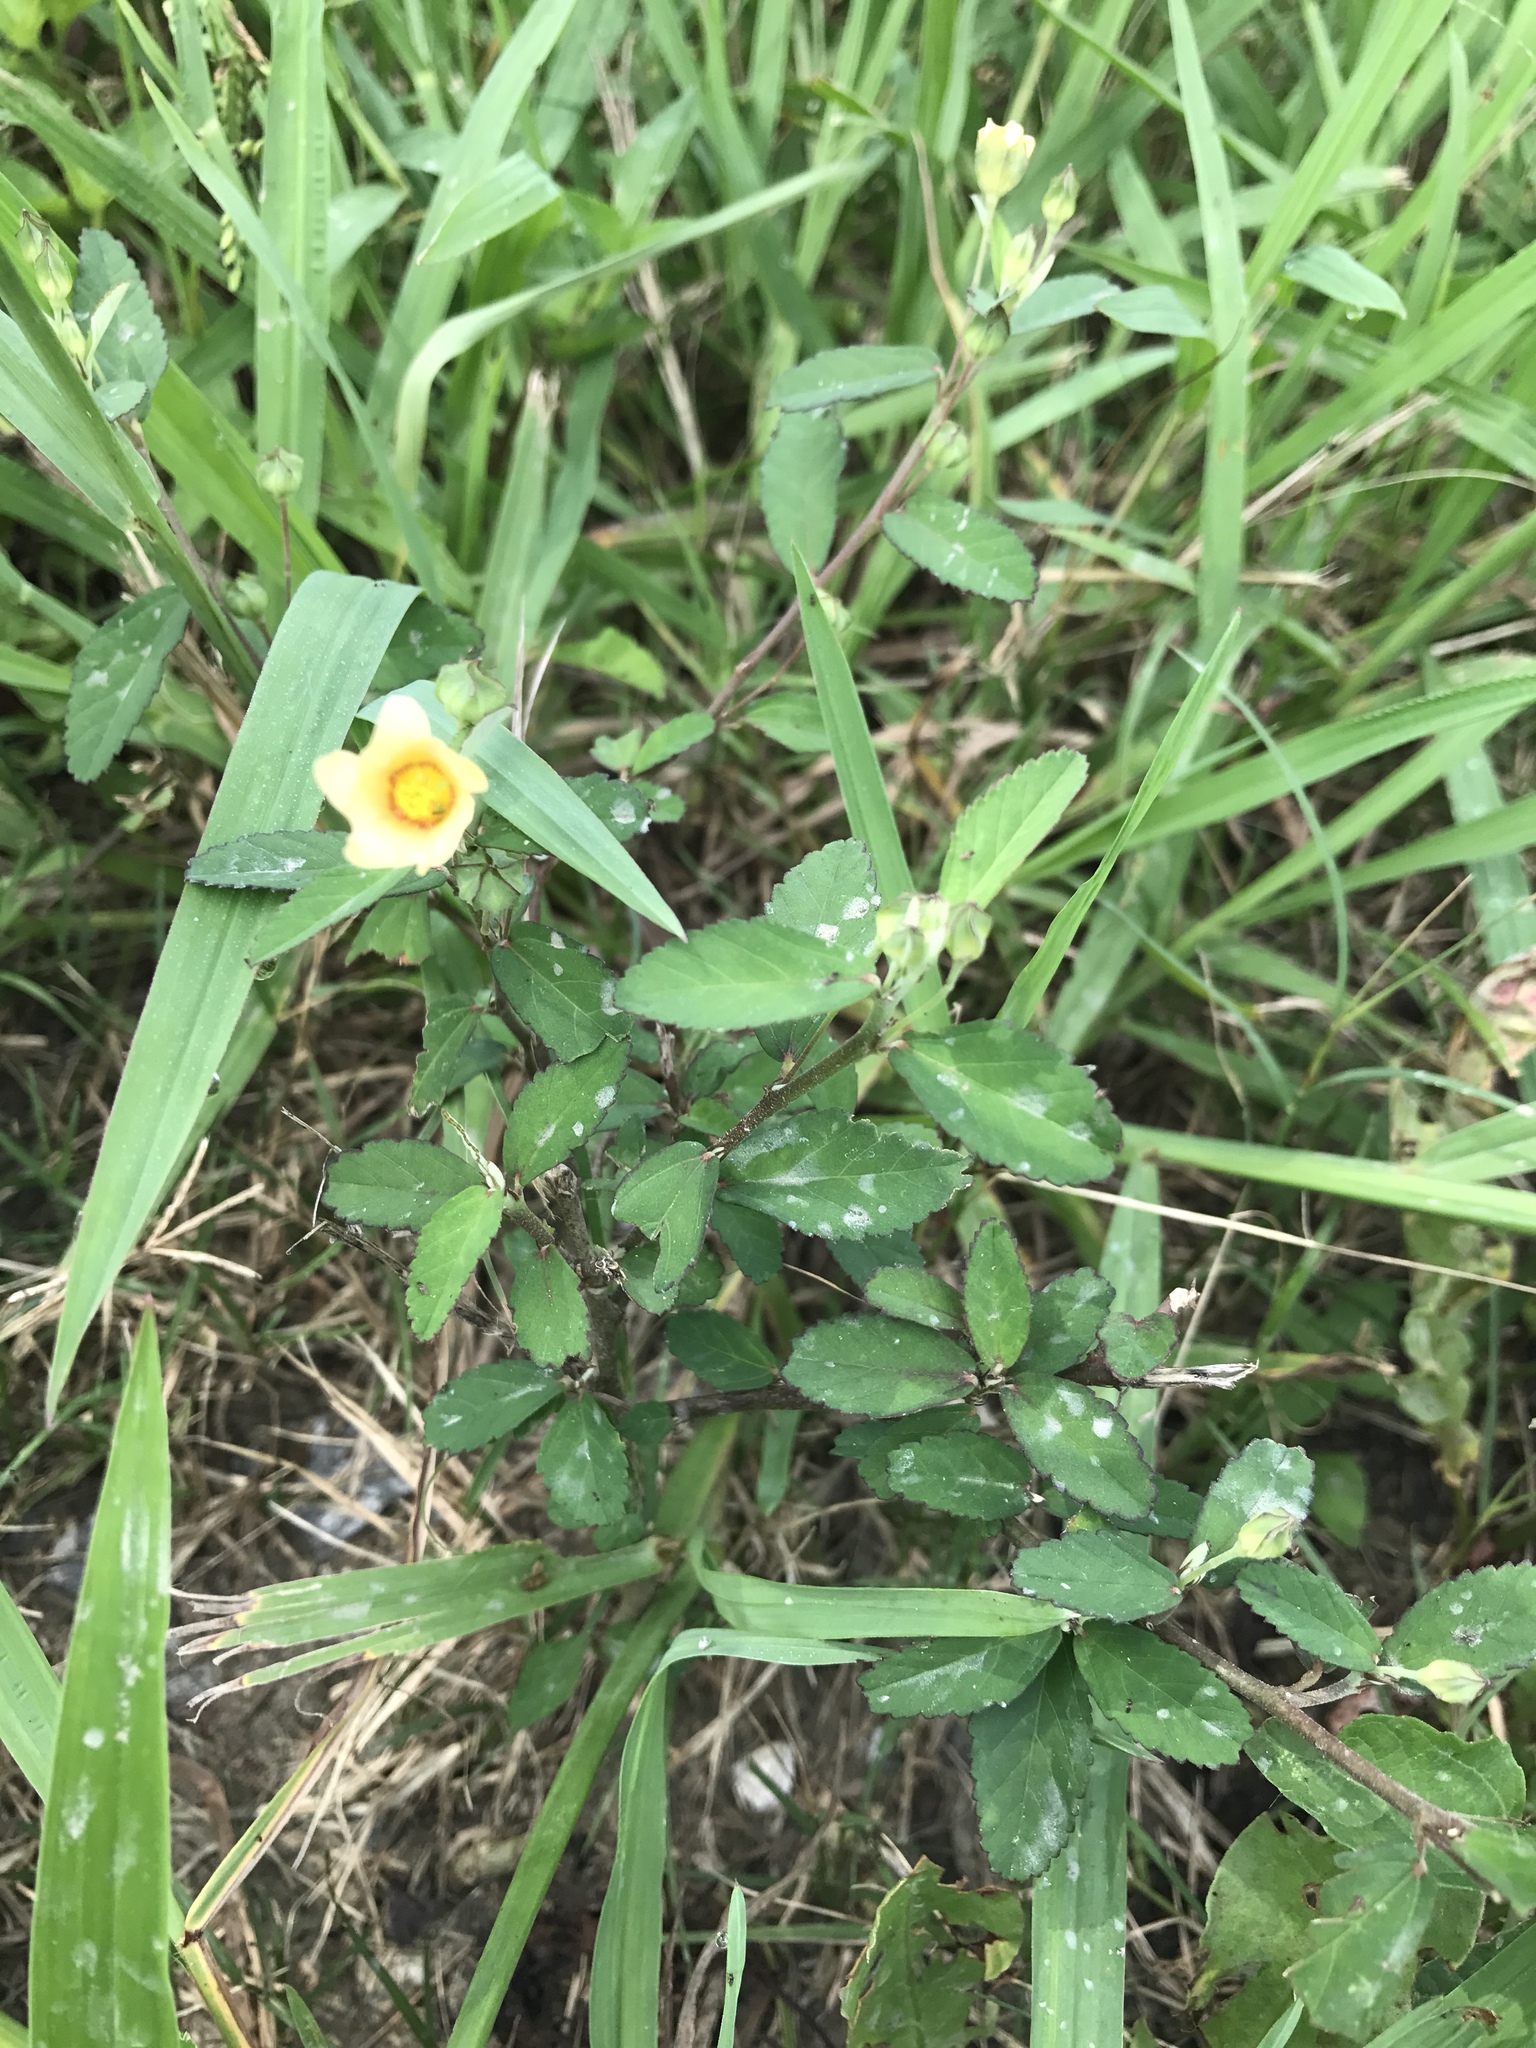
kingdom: Plantae
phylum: Tracheophyta
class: Magnoliopsida
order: Malvales
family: Malvaceae
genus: Sida
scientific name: Sida rhombifolia
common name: Queensland-hemp
